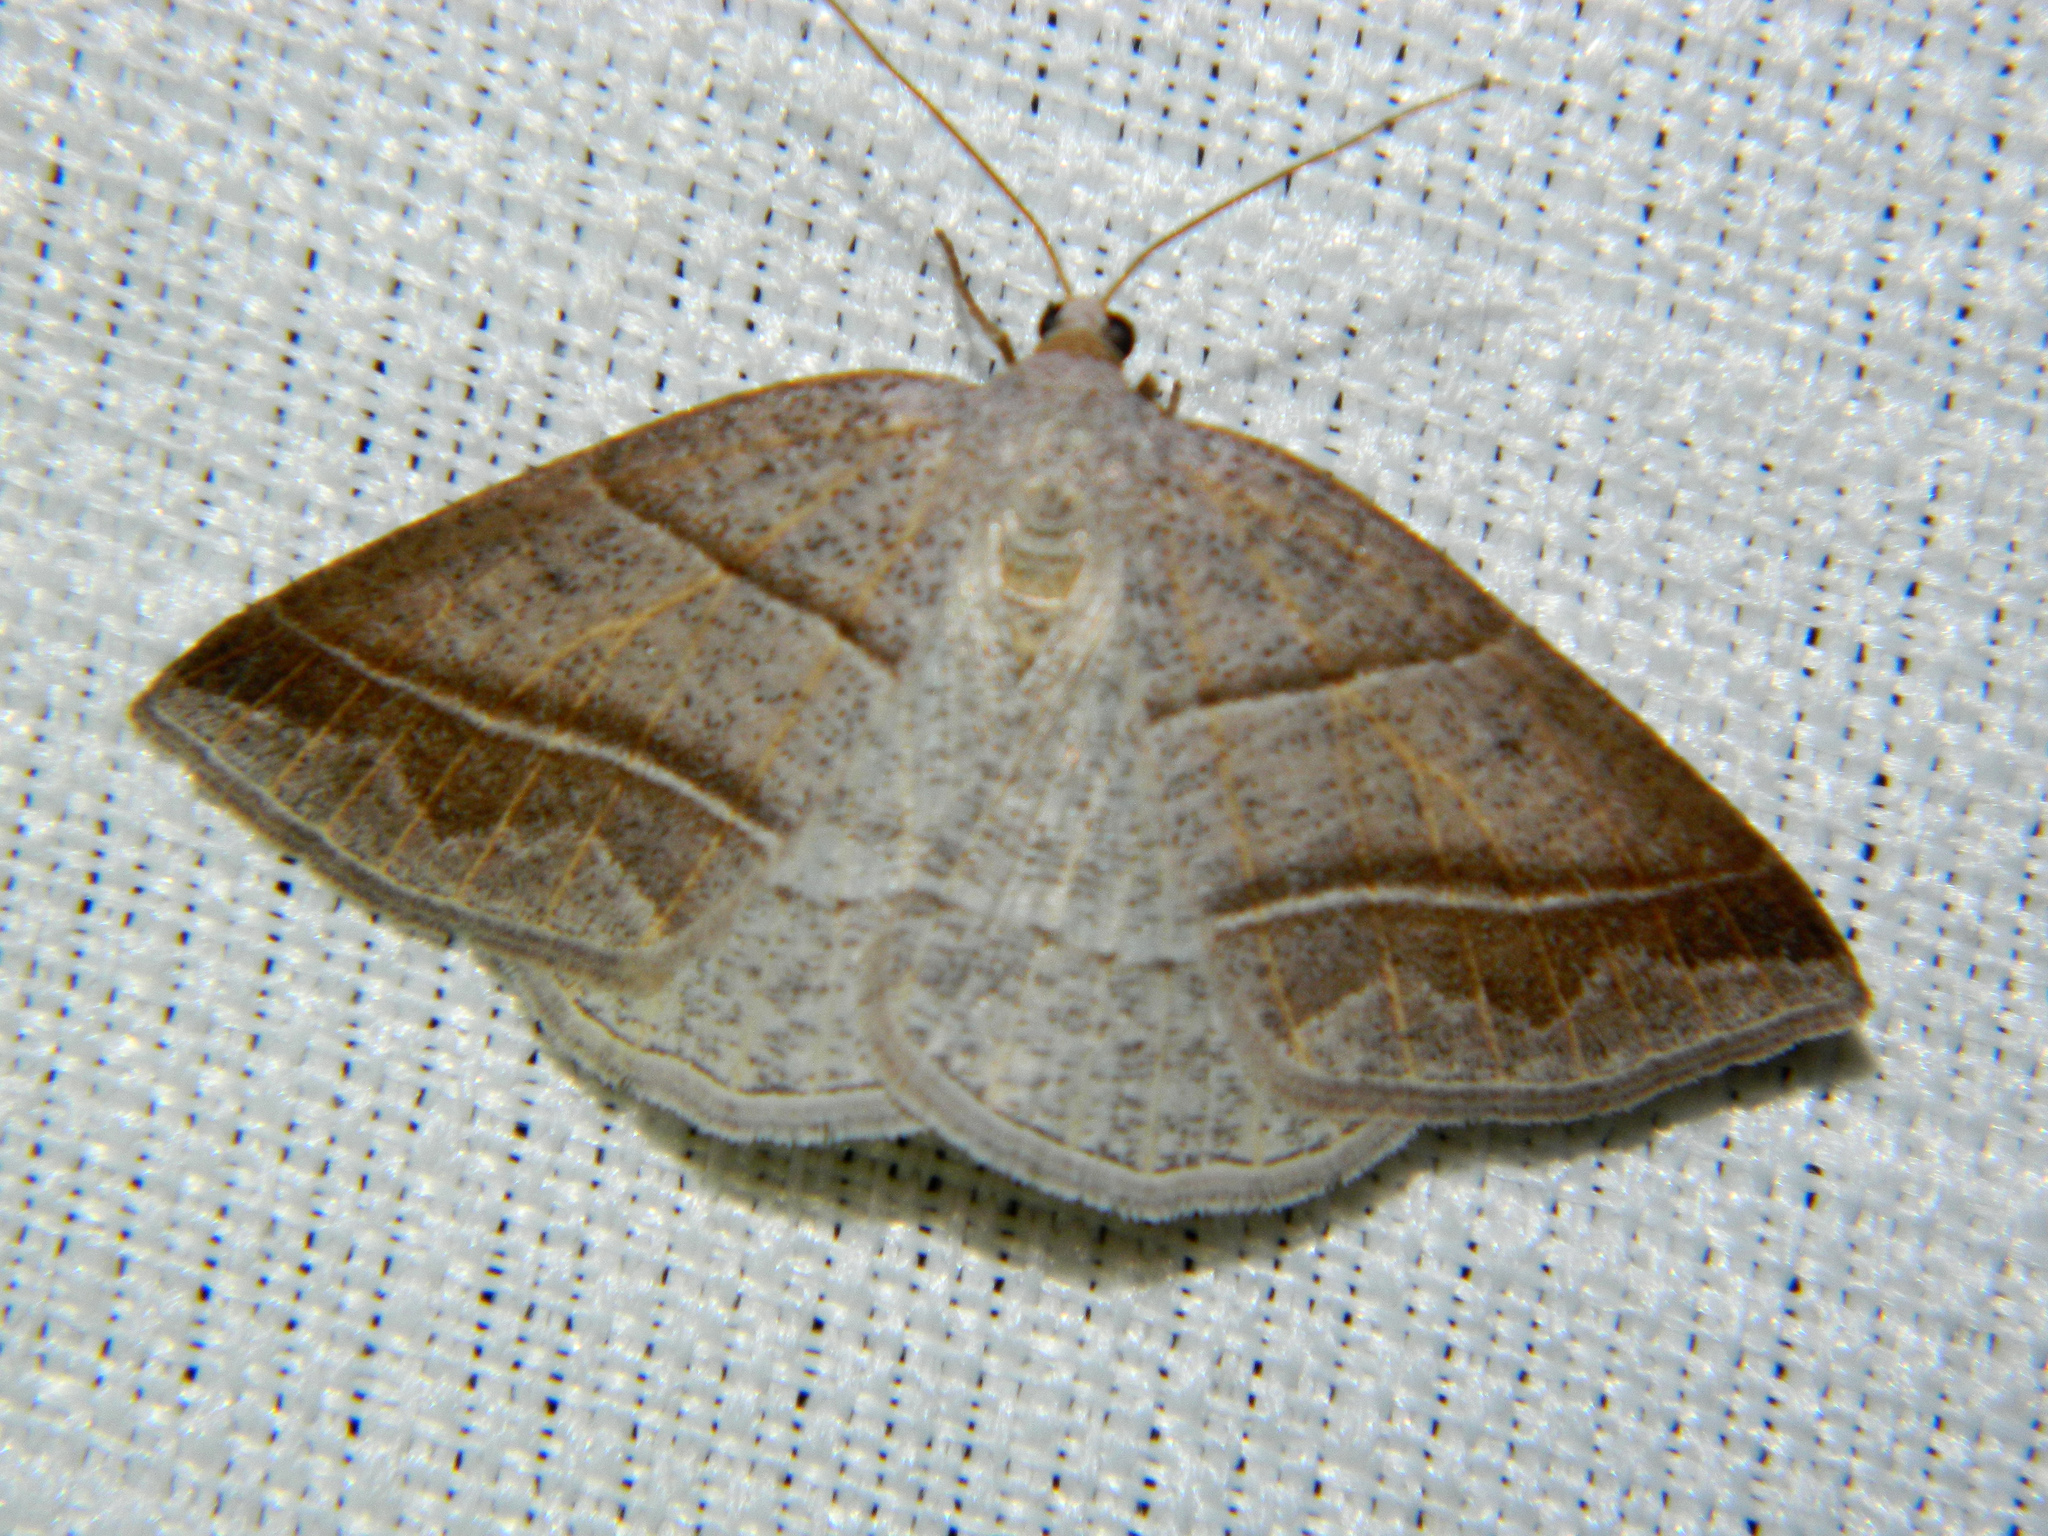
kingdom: Animalia
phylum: Arthropoda
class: Insecta
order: Lepidoptera
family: Pterophoridae
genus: Pterophorus
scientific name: Pterophorus Petrophora subaequaria
